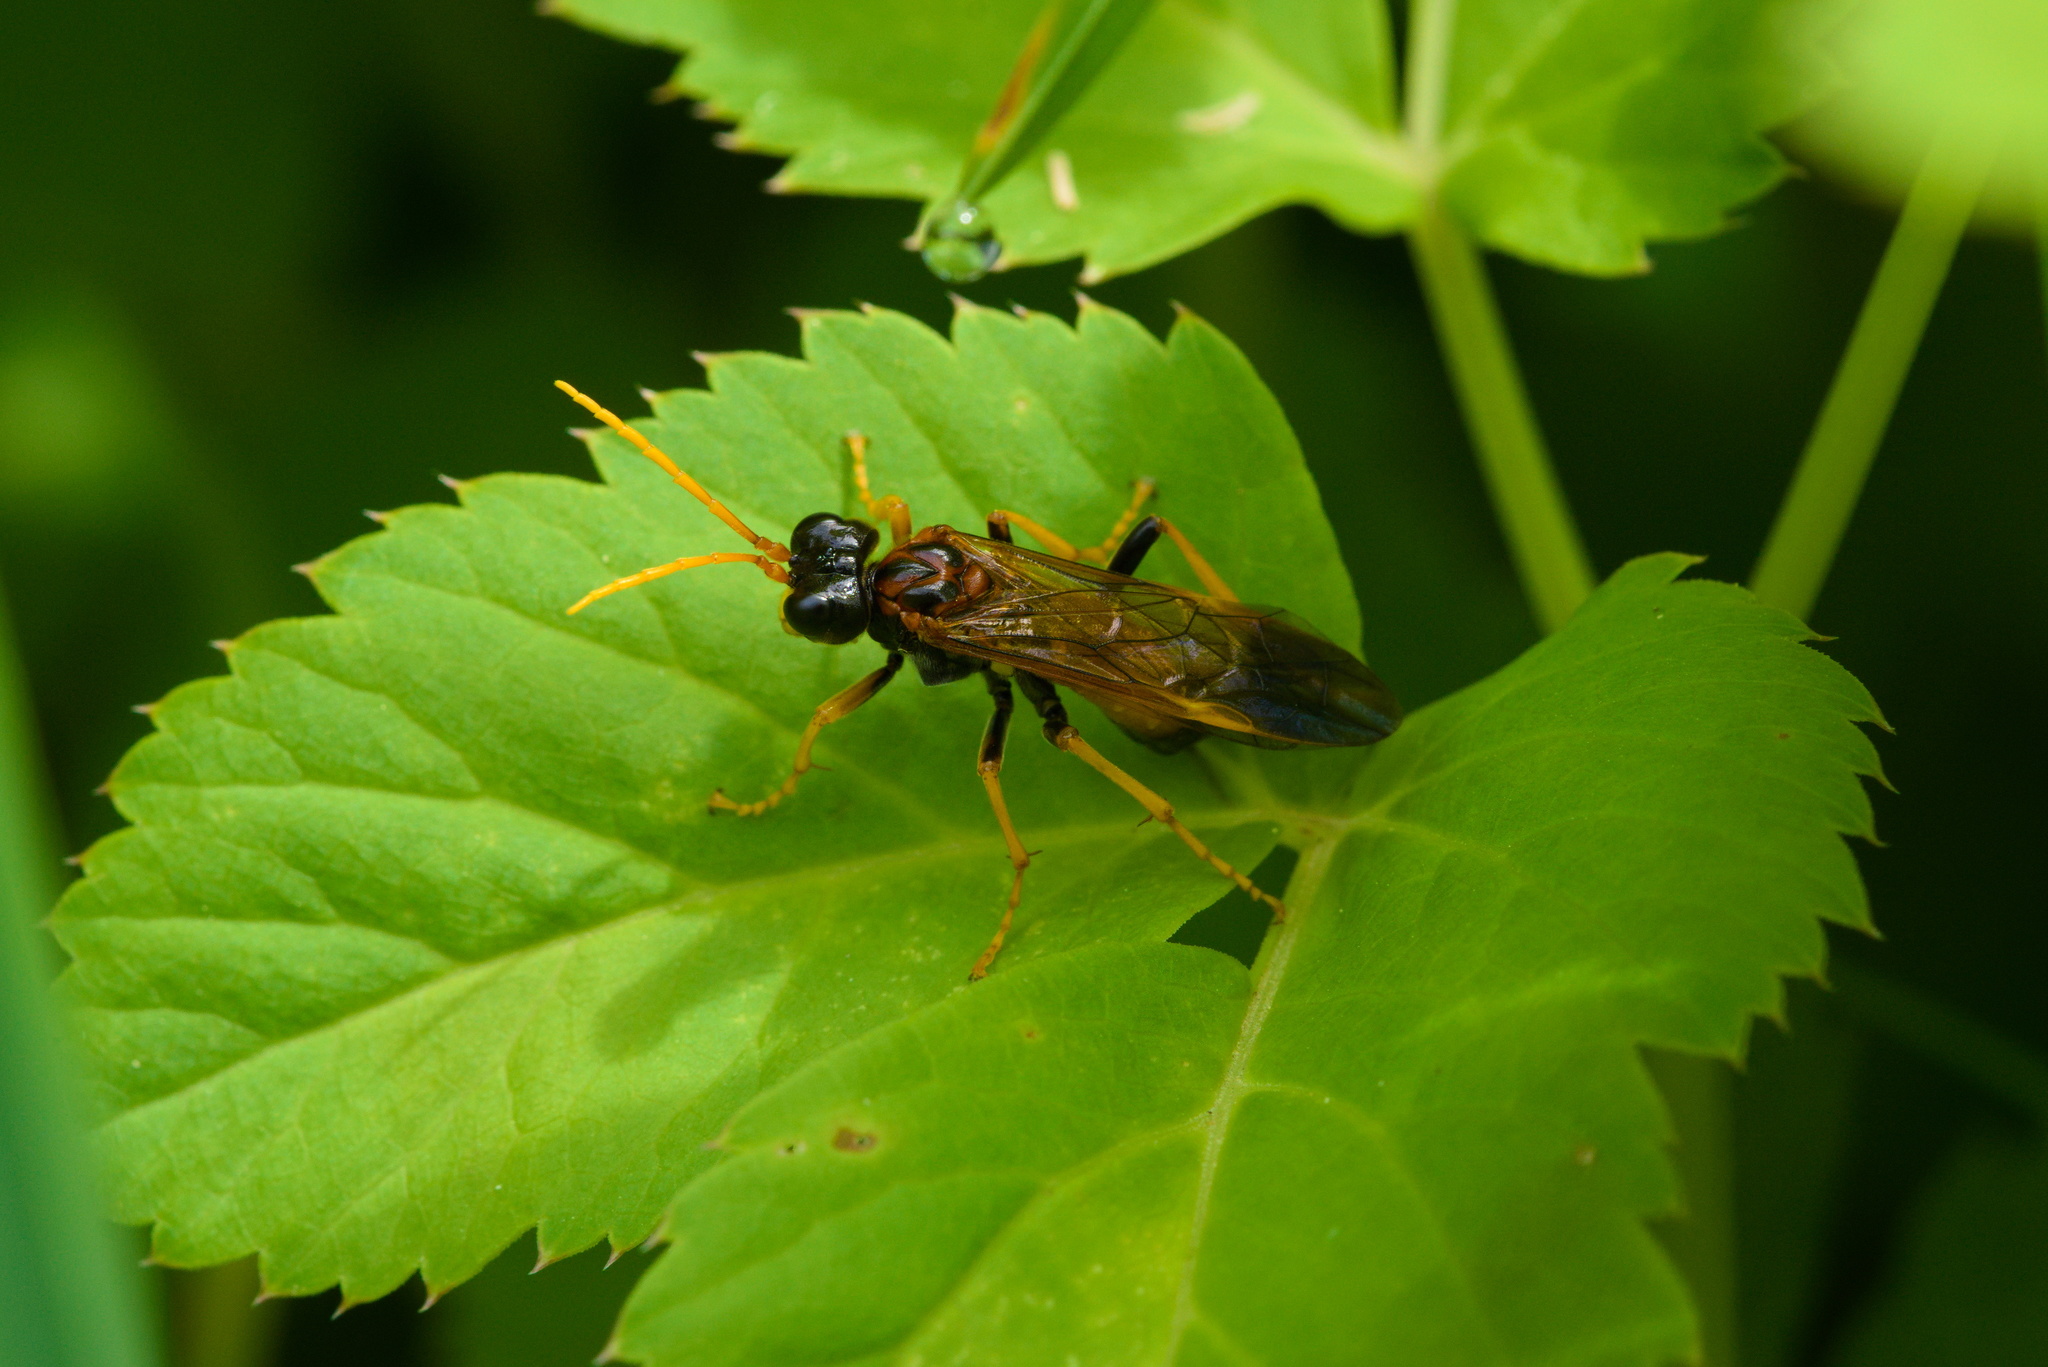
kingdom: Animalia
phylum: Arthropoda
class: Insecta
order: Hymenoptera
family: Tenthredinidae
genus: Tenthredo
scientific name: Tenthredo campestris
